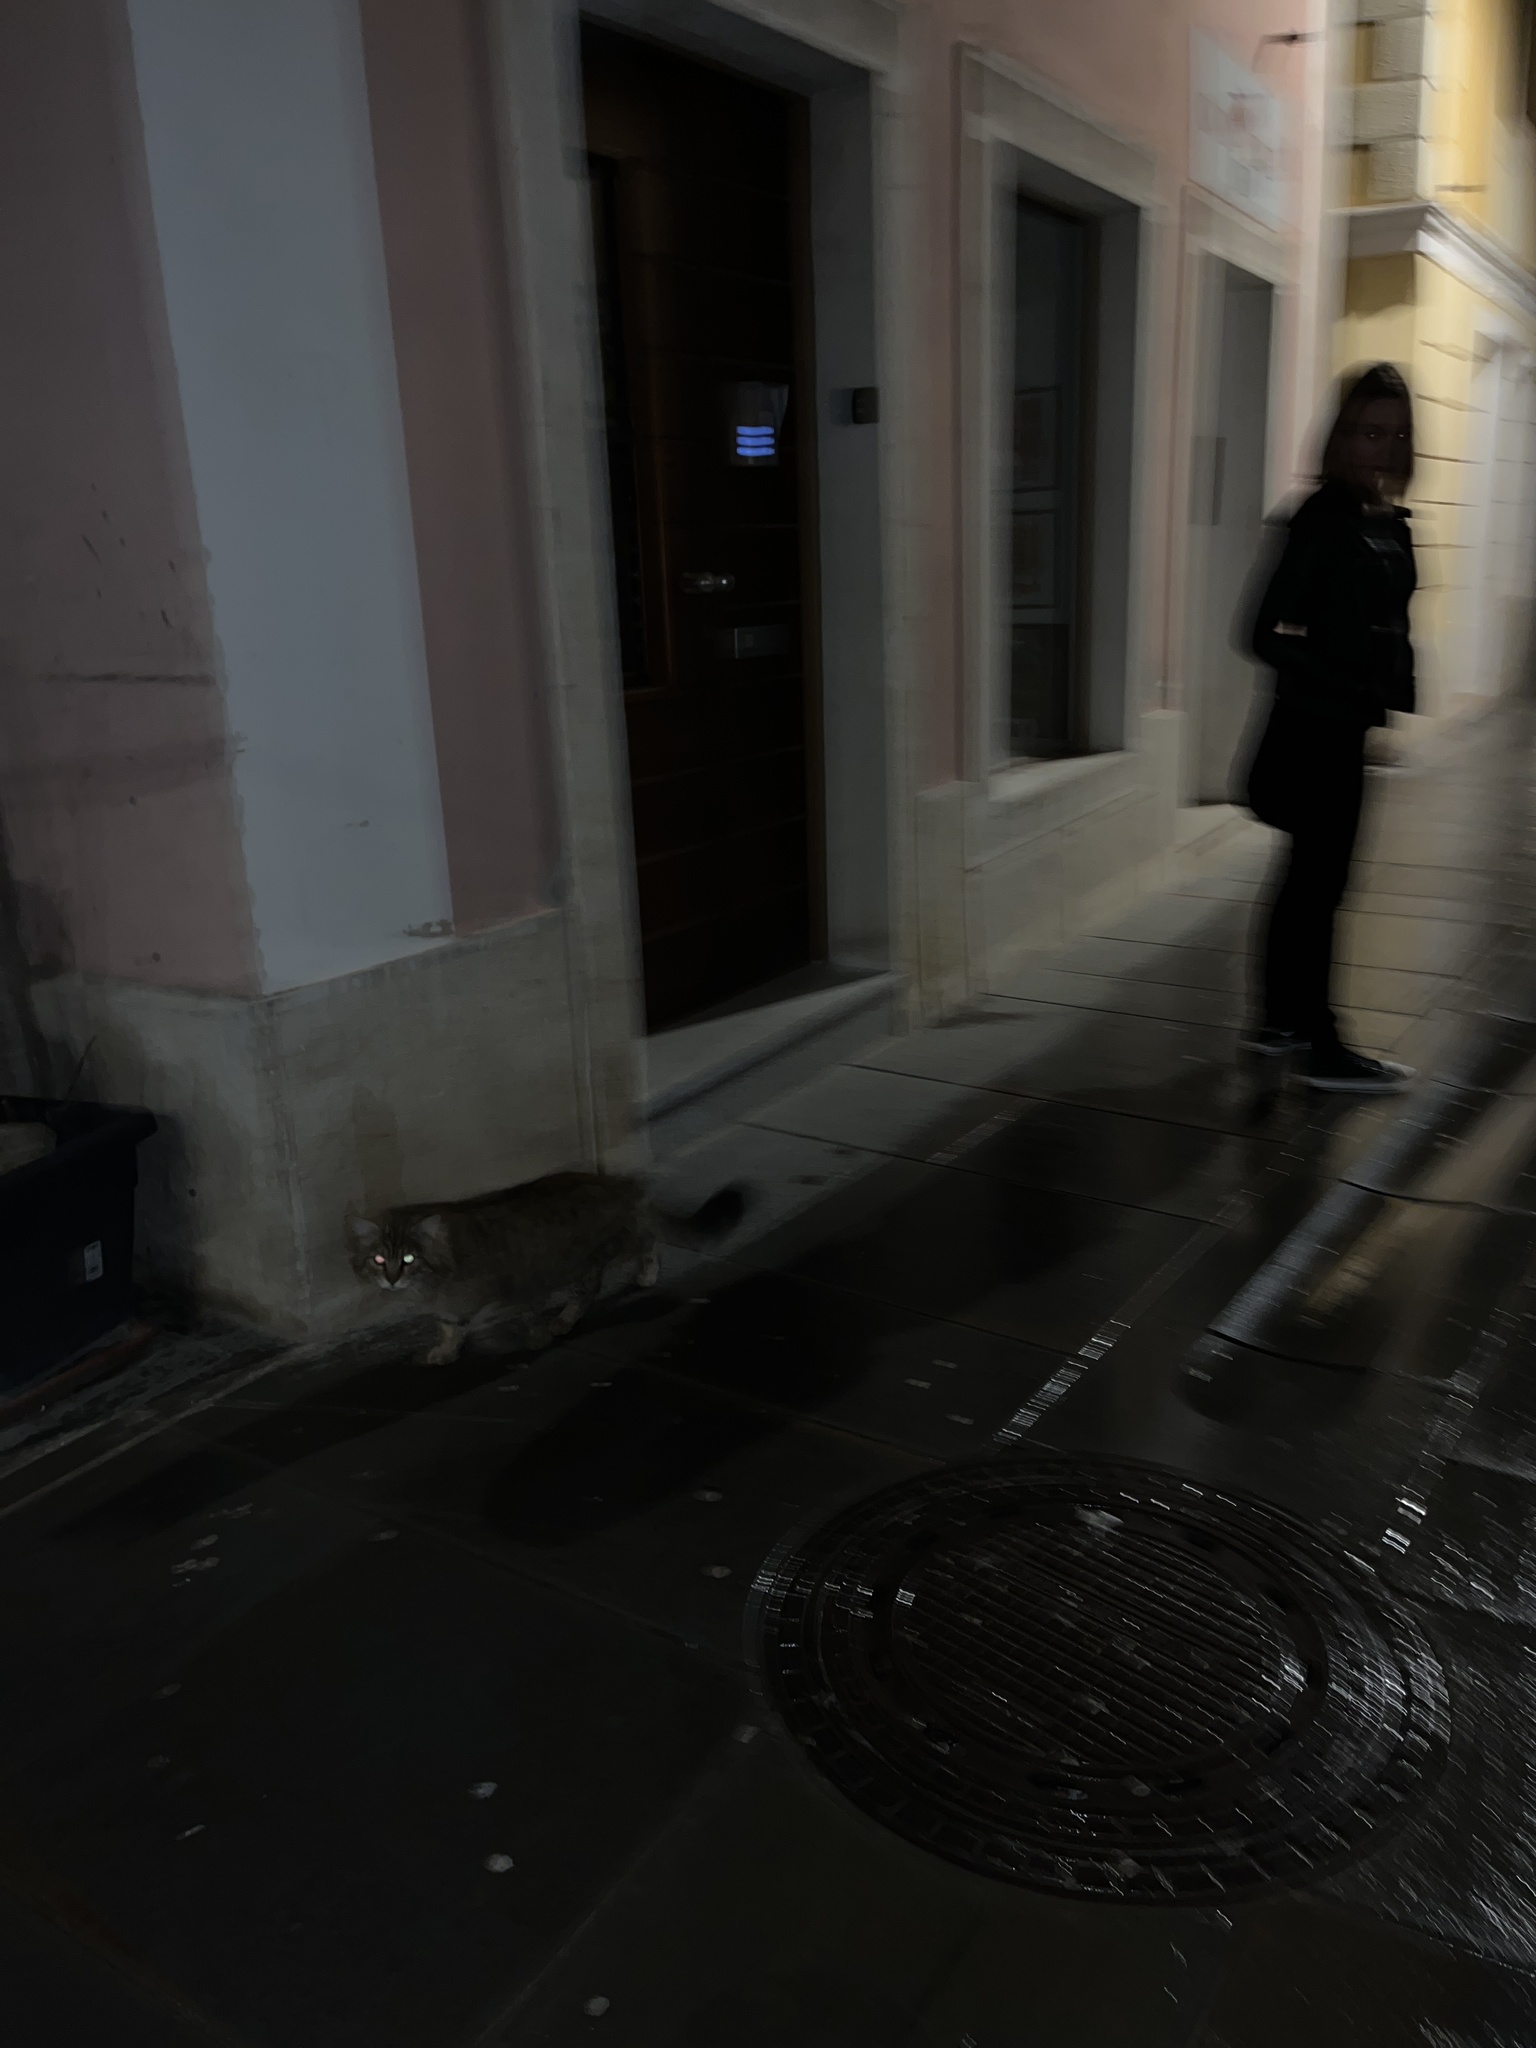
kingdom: Animalia
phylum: Chordata
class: Mammalia
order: Carnivora
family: Felidae
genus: Felis
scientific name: Felis catus
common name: Domestic cat
